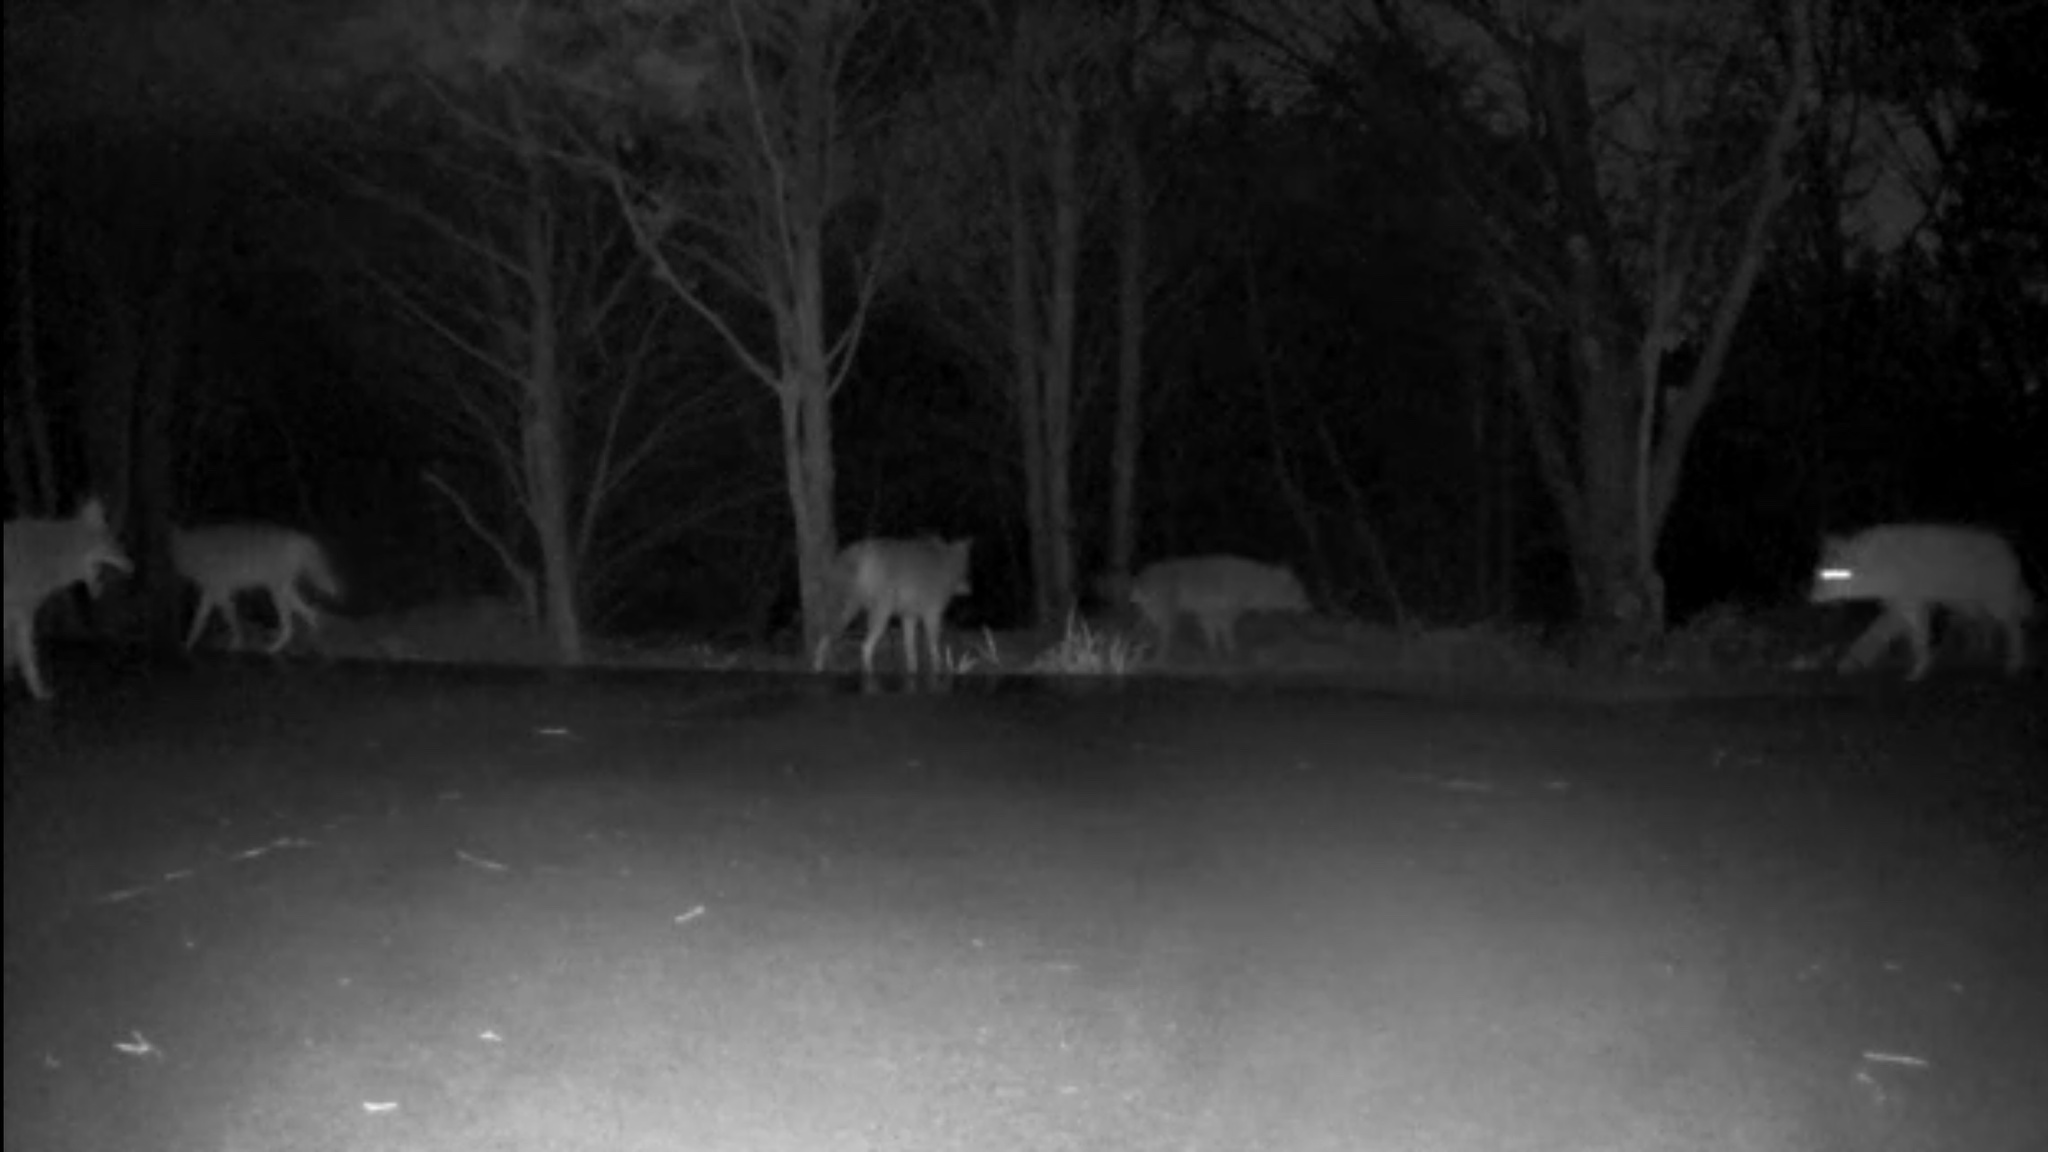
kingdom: Animalia
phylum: Chordata
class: Mammalia
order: Carnivora
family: Canidae
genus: Canis
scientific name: Canis latrans
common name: Coyote
